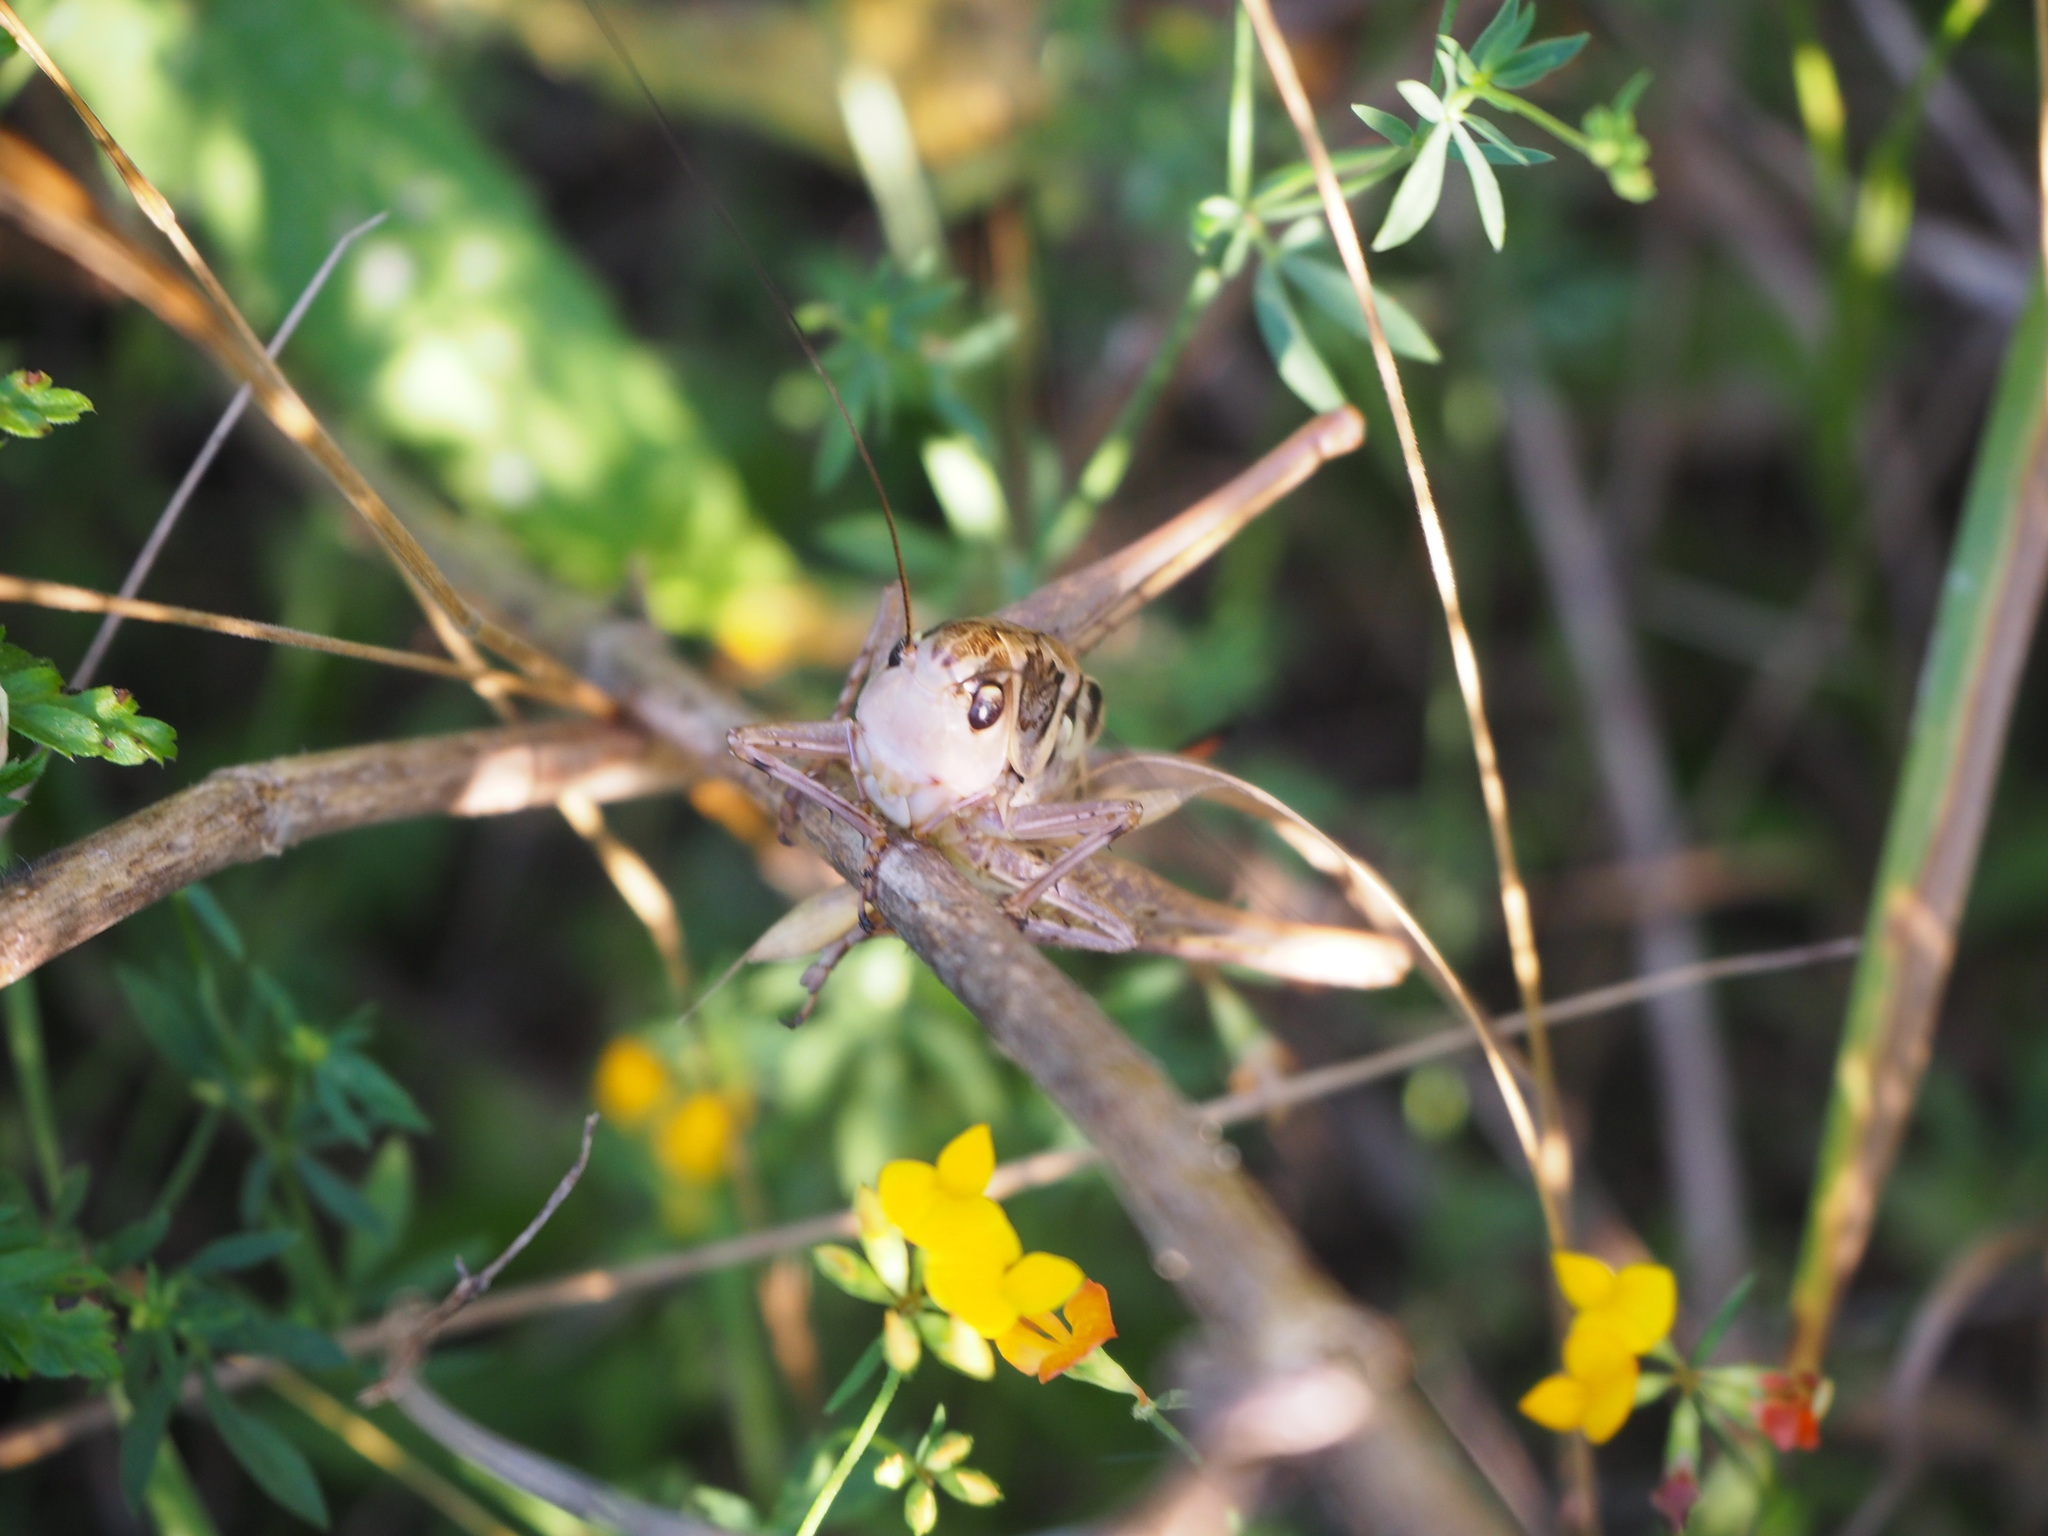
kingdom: Animalia
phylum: Arthropoda
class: Insecta
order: Orthoptera
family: Tettigoniidae
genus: Decticus
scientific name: Decticus albifrons
